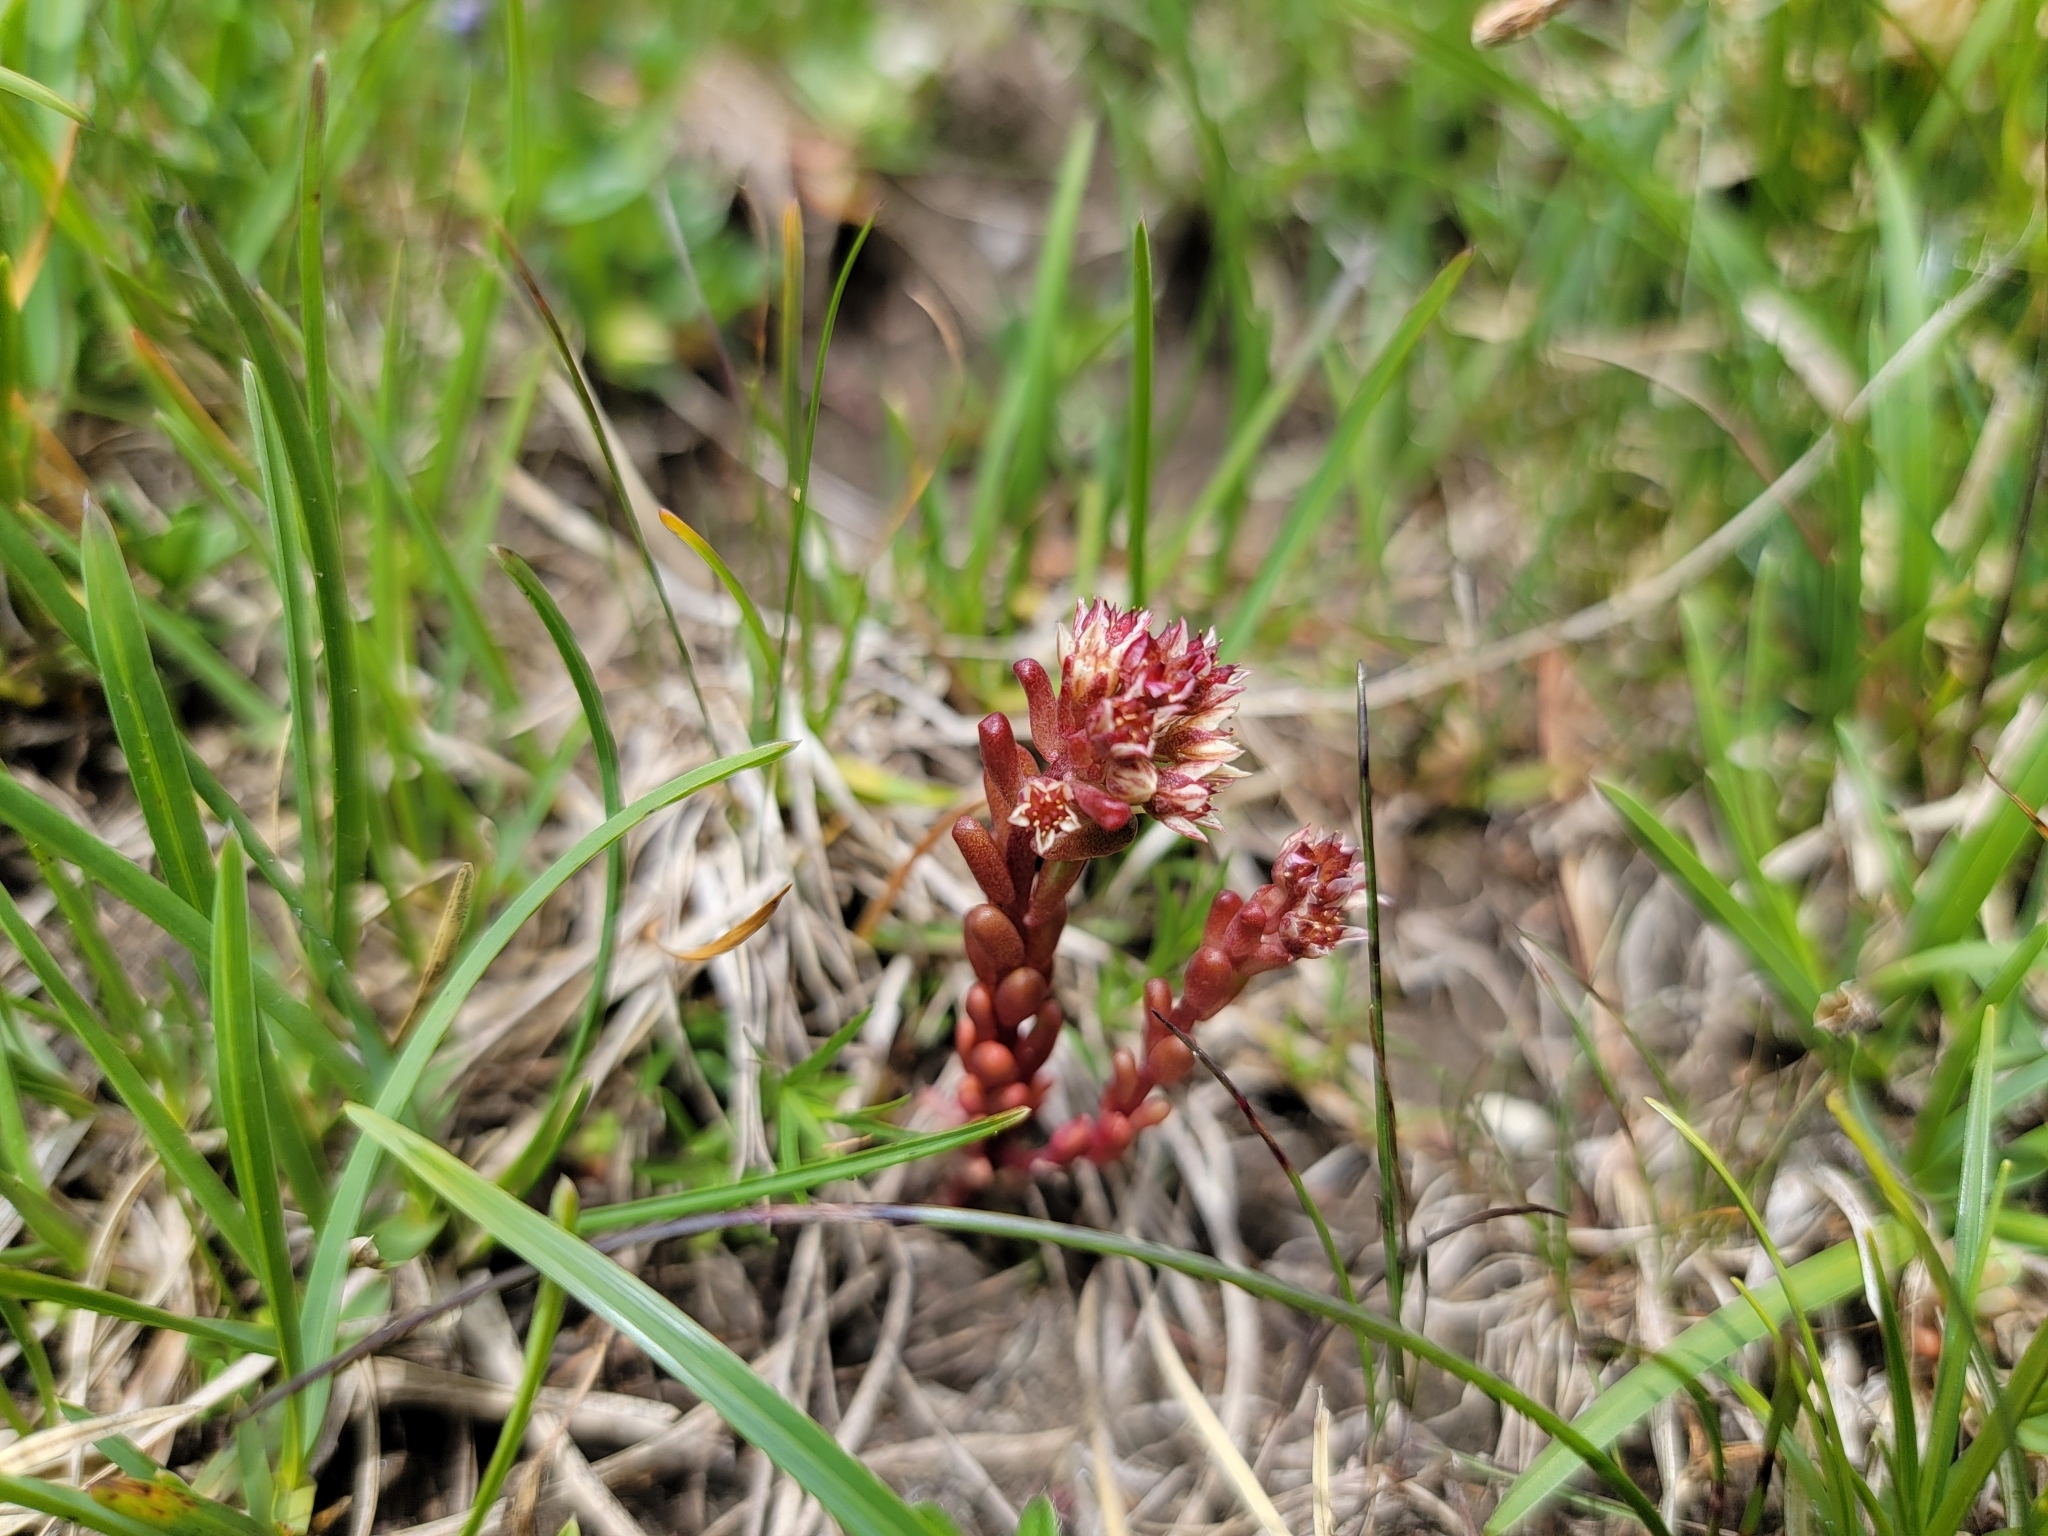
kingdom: Plantae
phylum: Tracheophyta
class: Magnoliopsida
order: Saxifragales
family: Crassulaceae
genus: Sedum
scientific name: Sedum atratum
